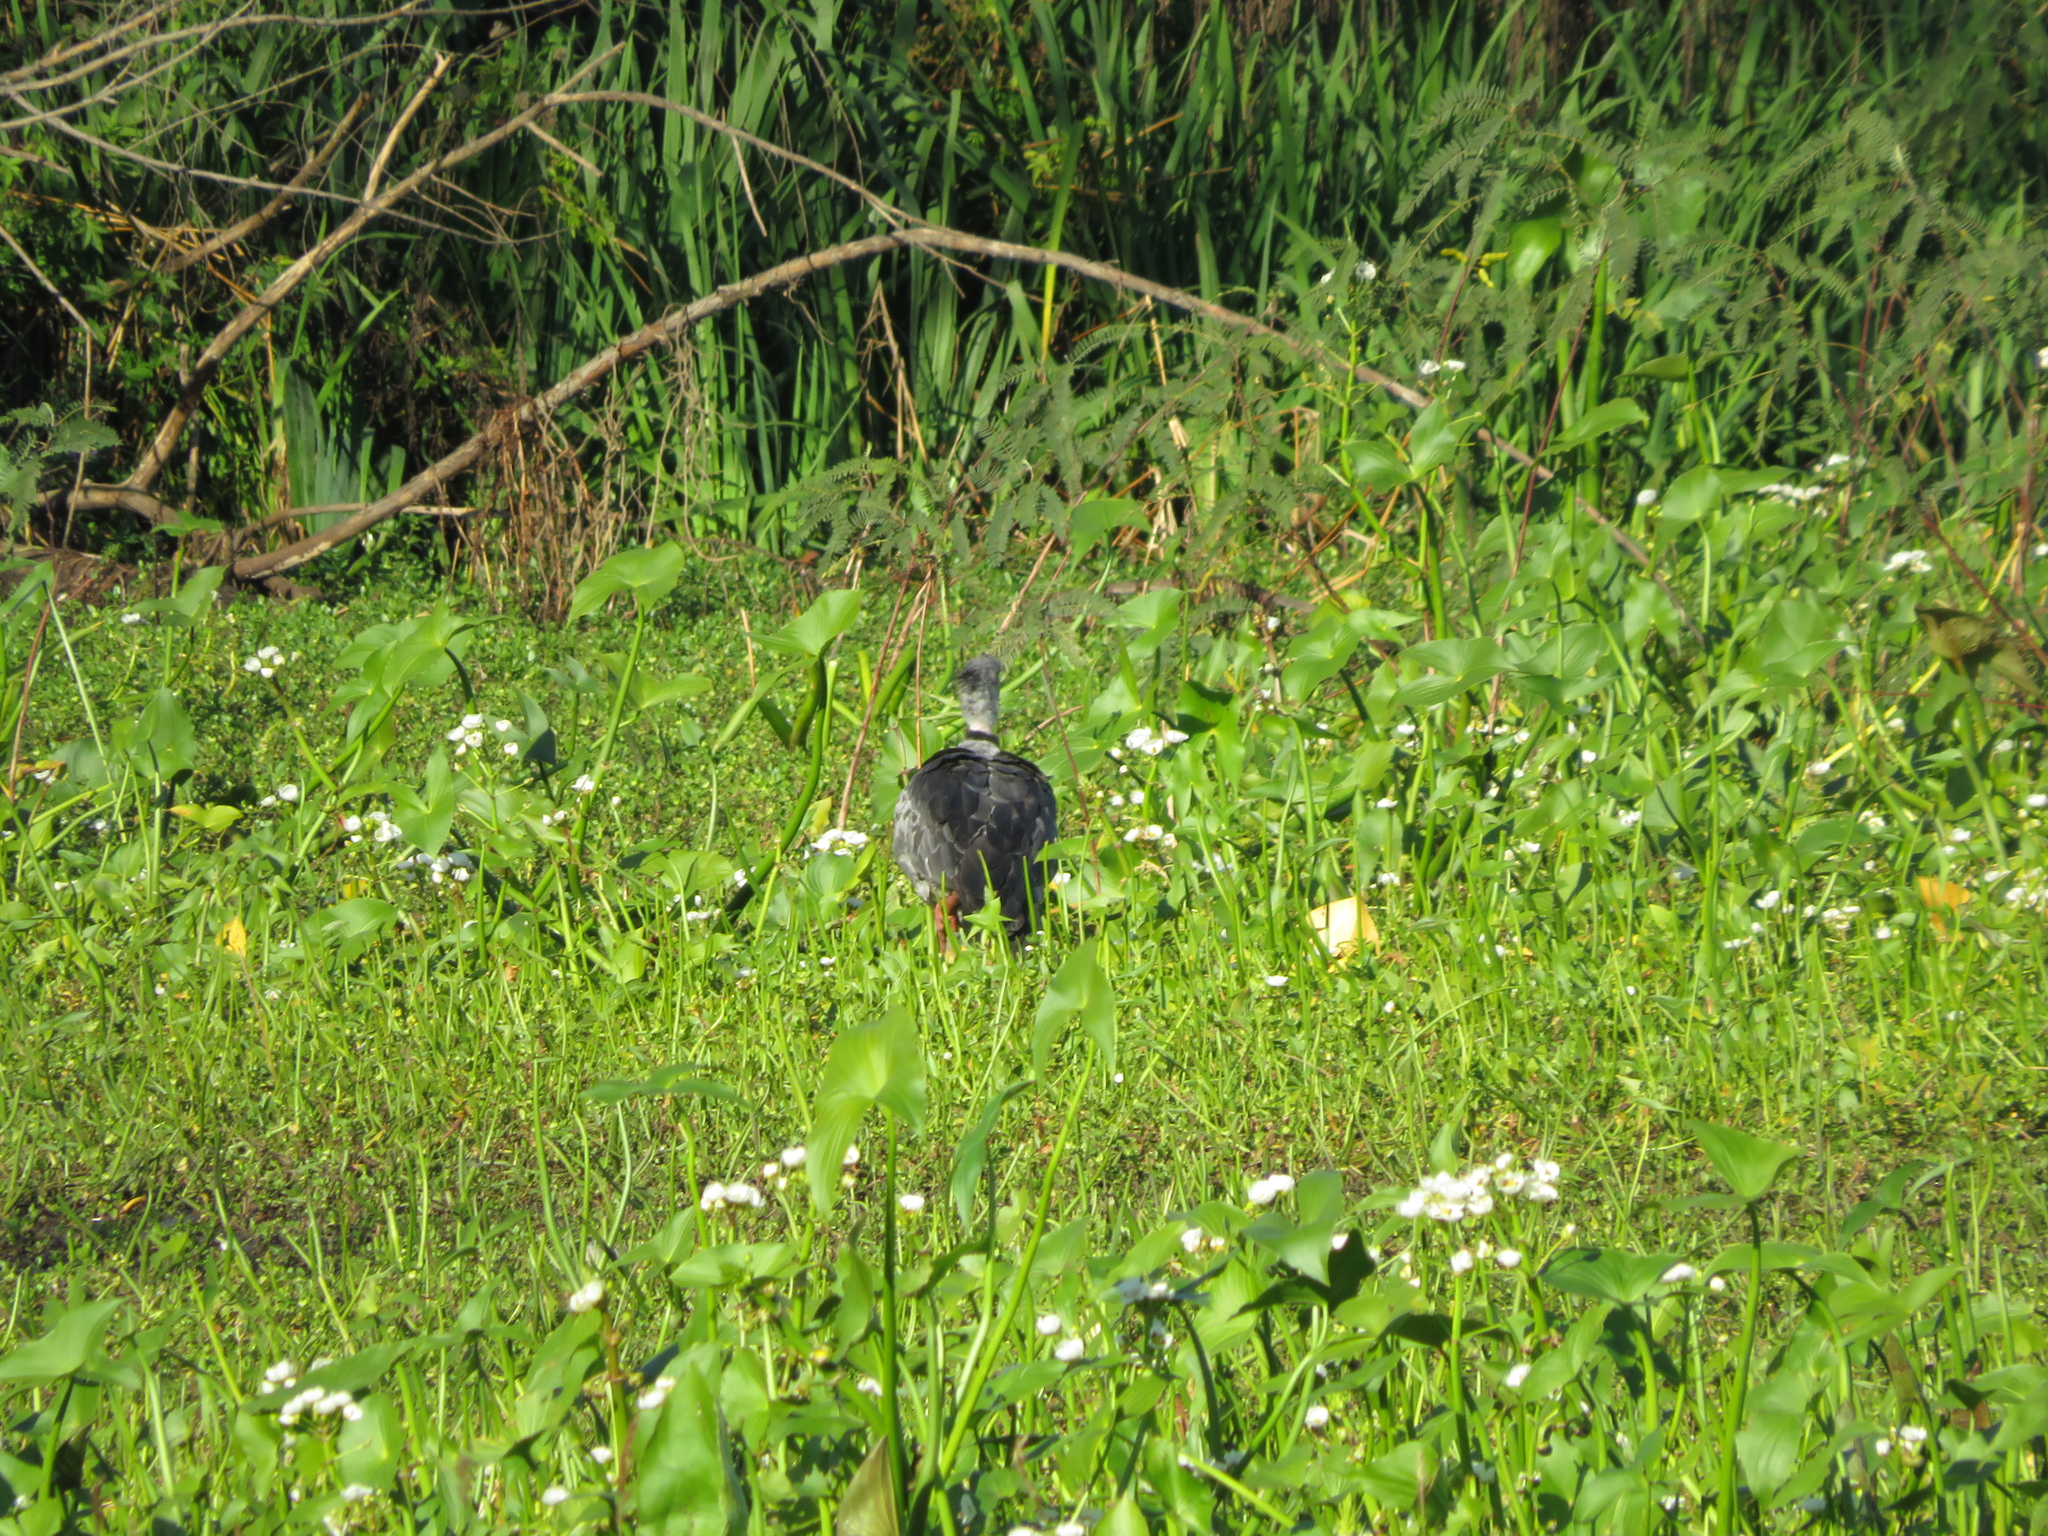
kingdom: Animalia
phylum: Chordata
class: Aves
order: Anseriformes
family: Anhimidae
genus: Chauna
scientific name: Chauna torquata
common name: Southern screamer
